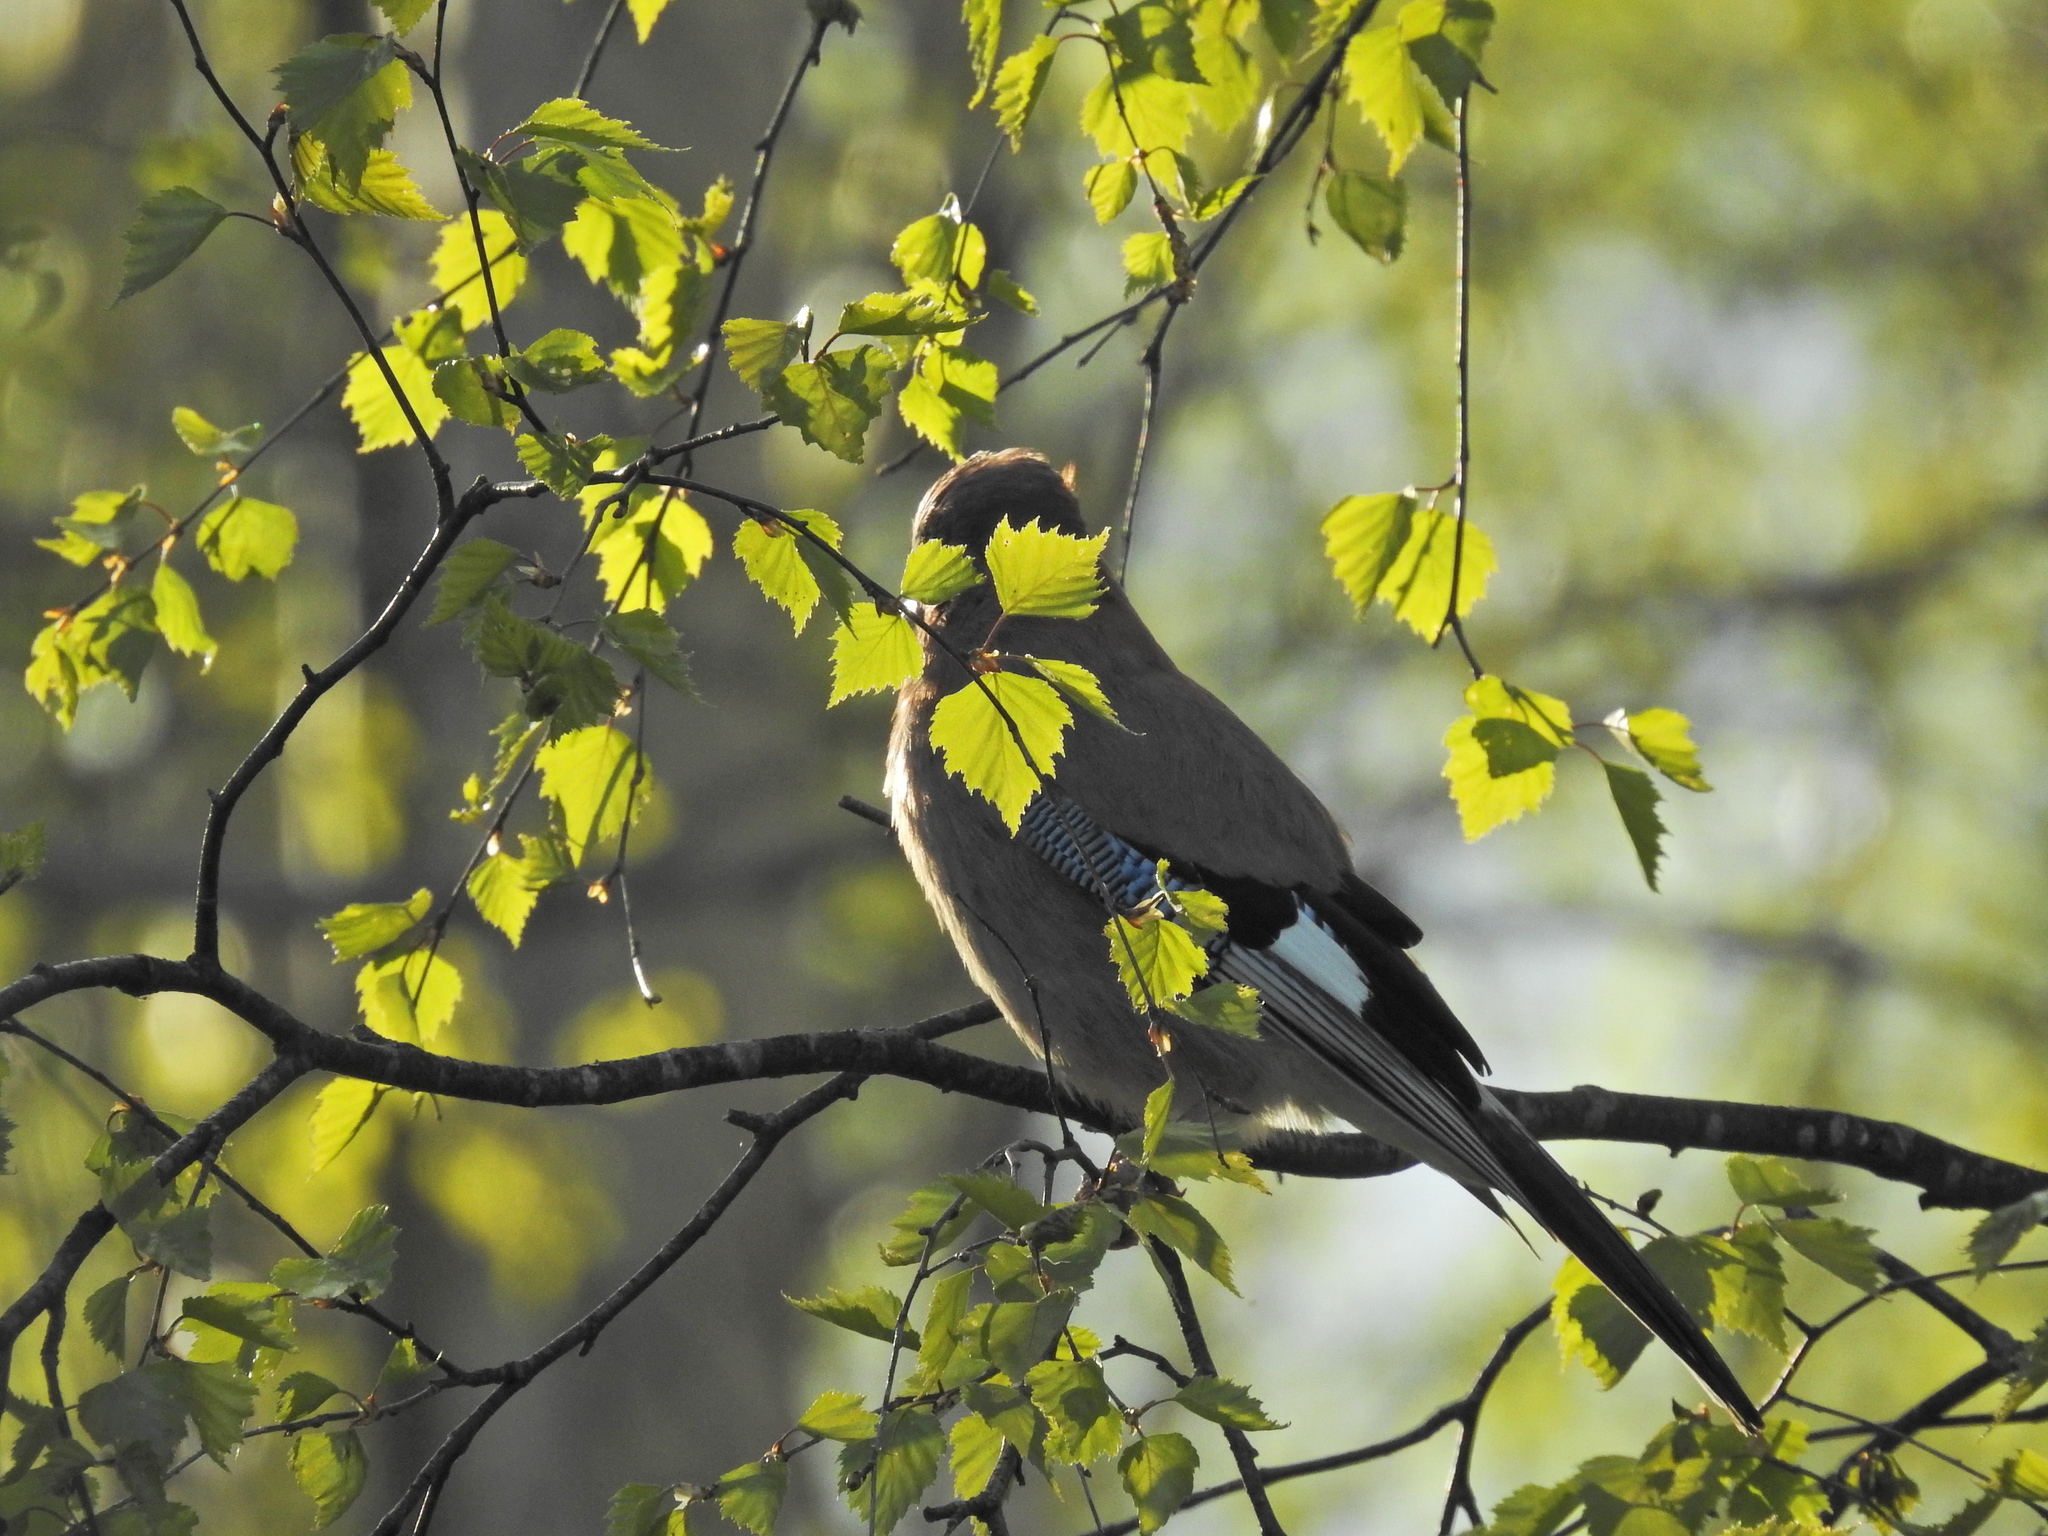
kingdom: Animalia
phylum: Chordata
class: Aves
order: Passeriformes
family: Corvidae
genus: Garrulus
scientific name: Garrulus glandarius
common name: Eurasian jay
